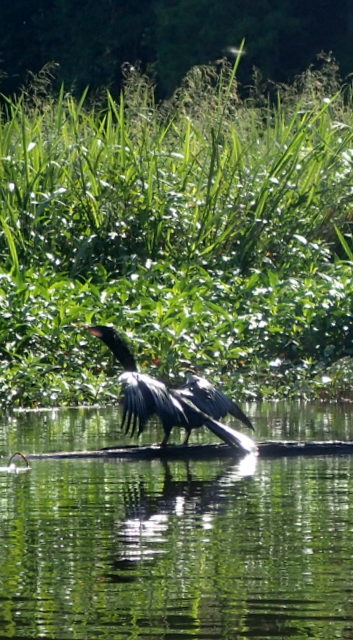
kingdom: Animalia
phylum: Chordata
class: Aves
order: Suliformes
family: Anhingidae
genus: Anhinga
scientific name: Anhinga anhinga
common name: Anhinga
